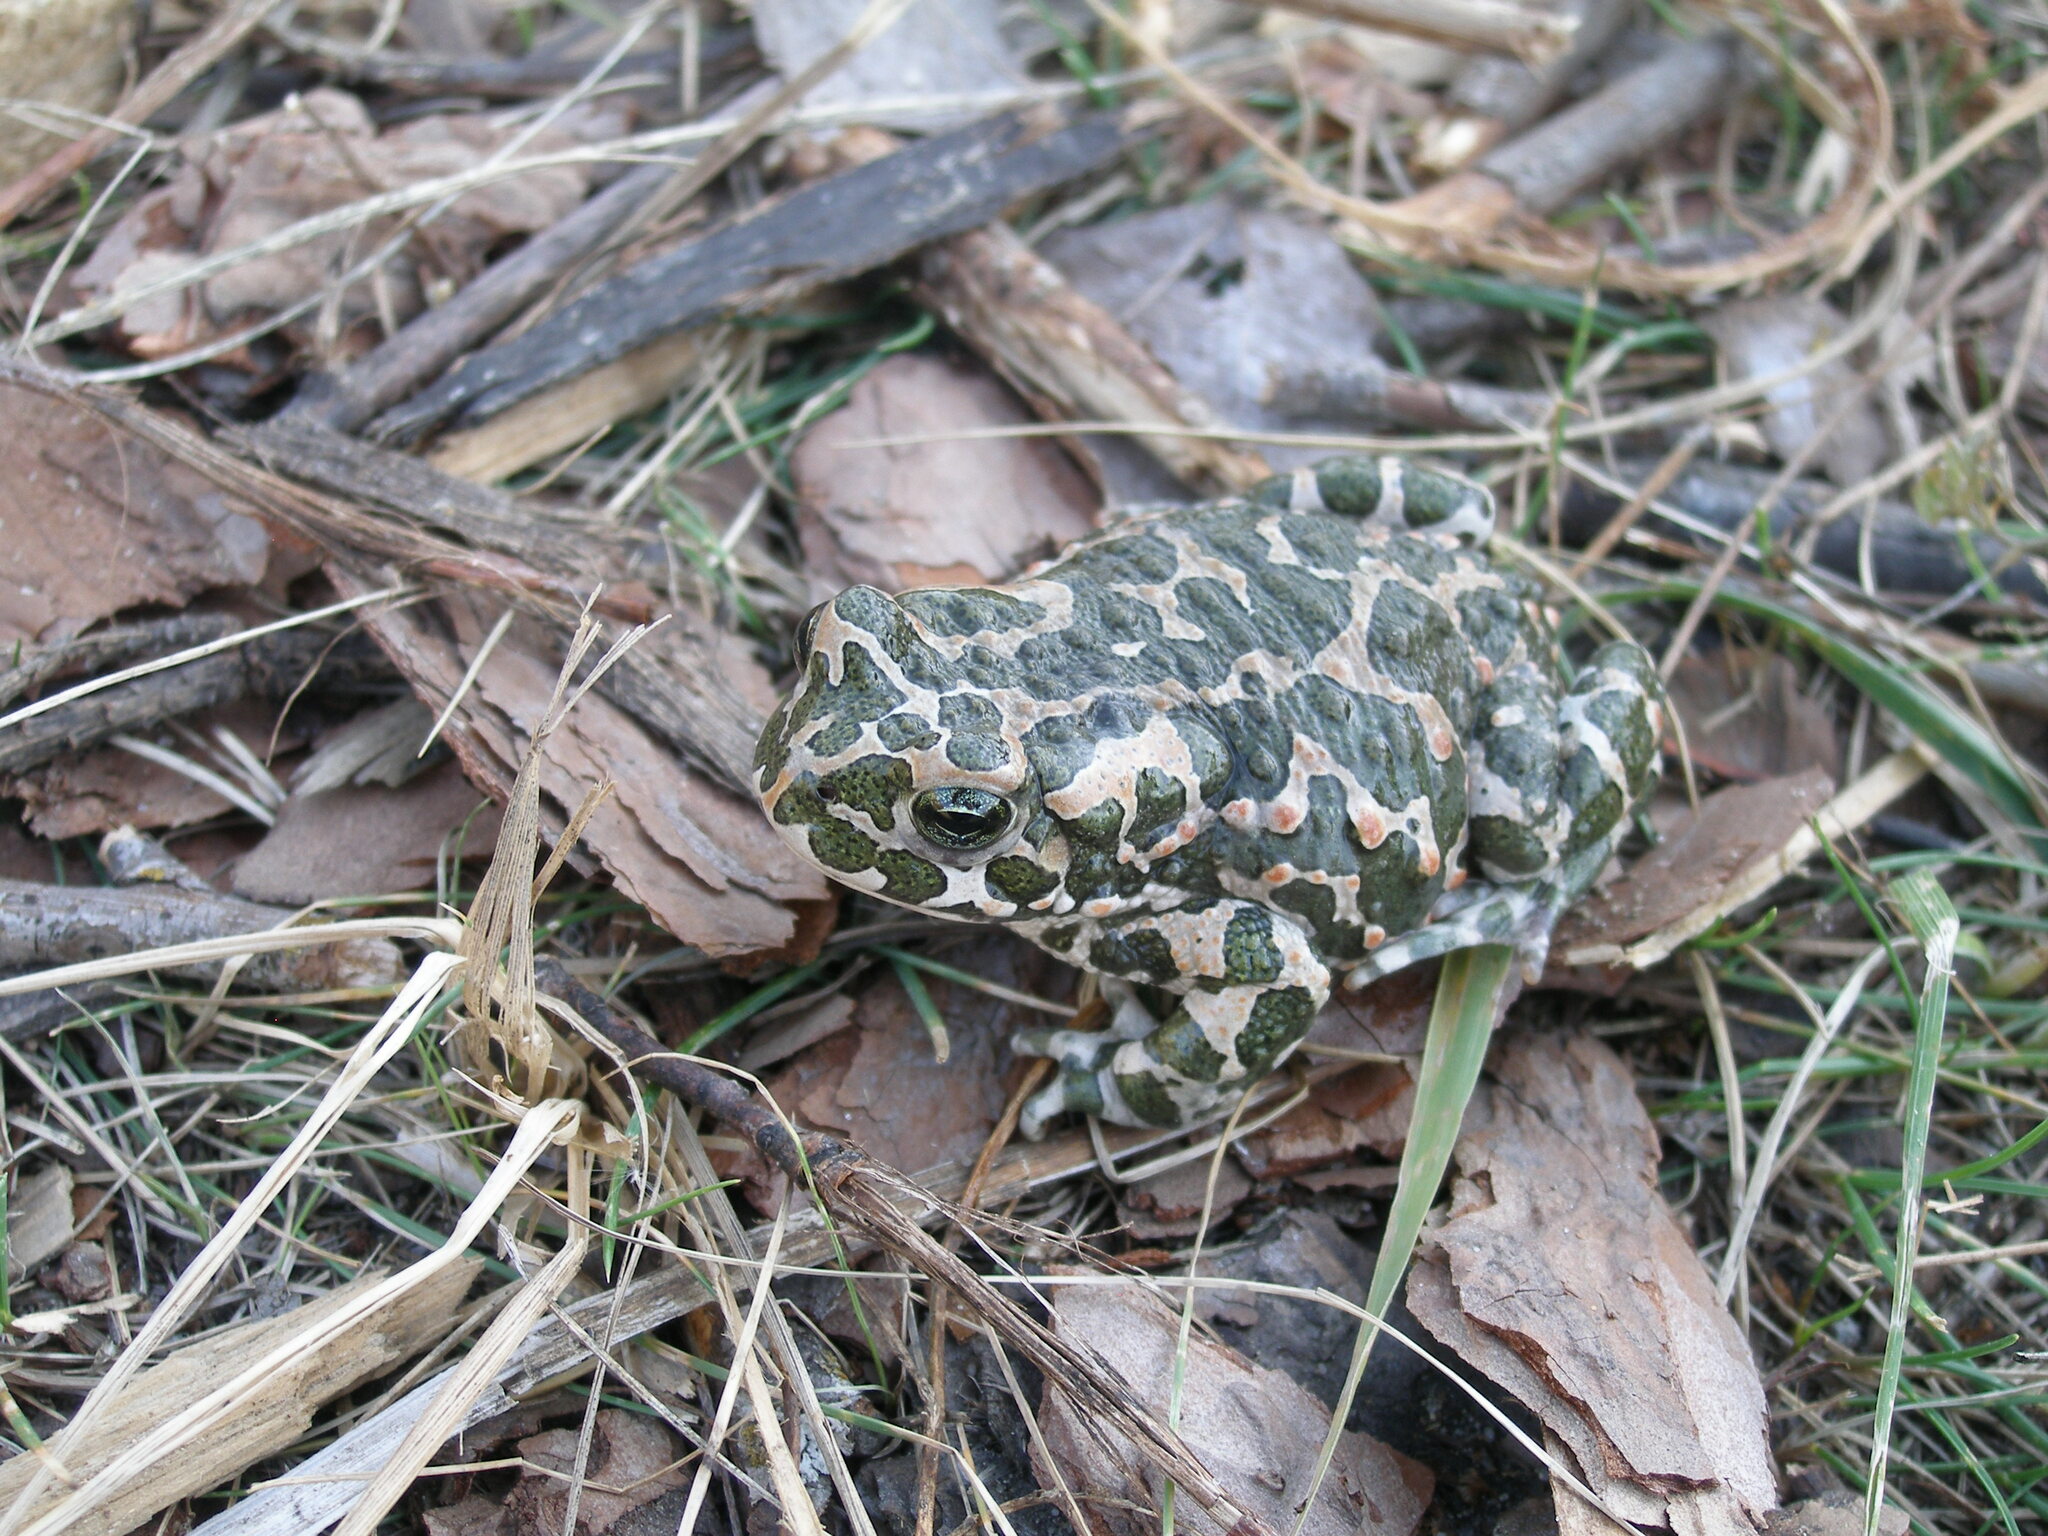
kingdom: Animalia
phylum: Chordata
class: Amphibia
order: Anura
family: Bufonidae
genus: Bufotes
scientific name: Bufotes viridis
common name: European green toad
